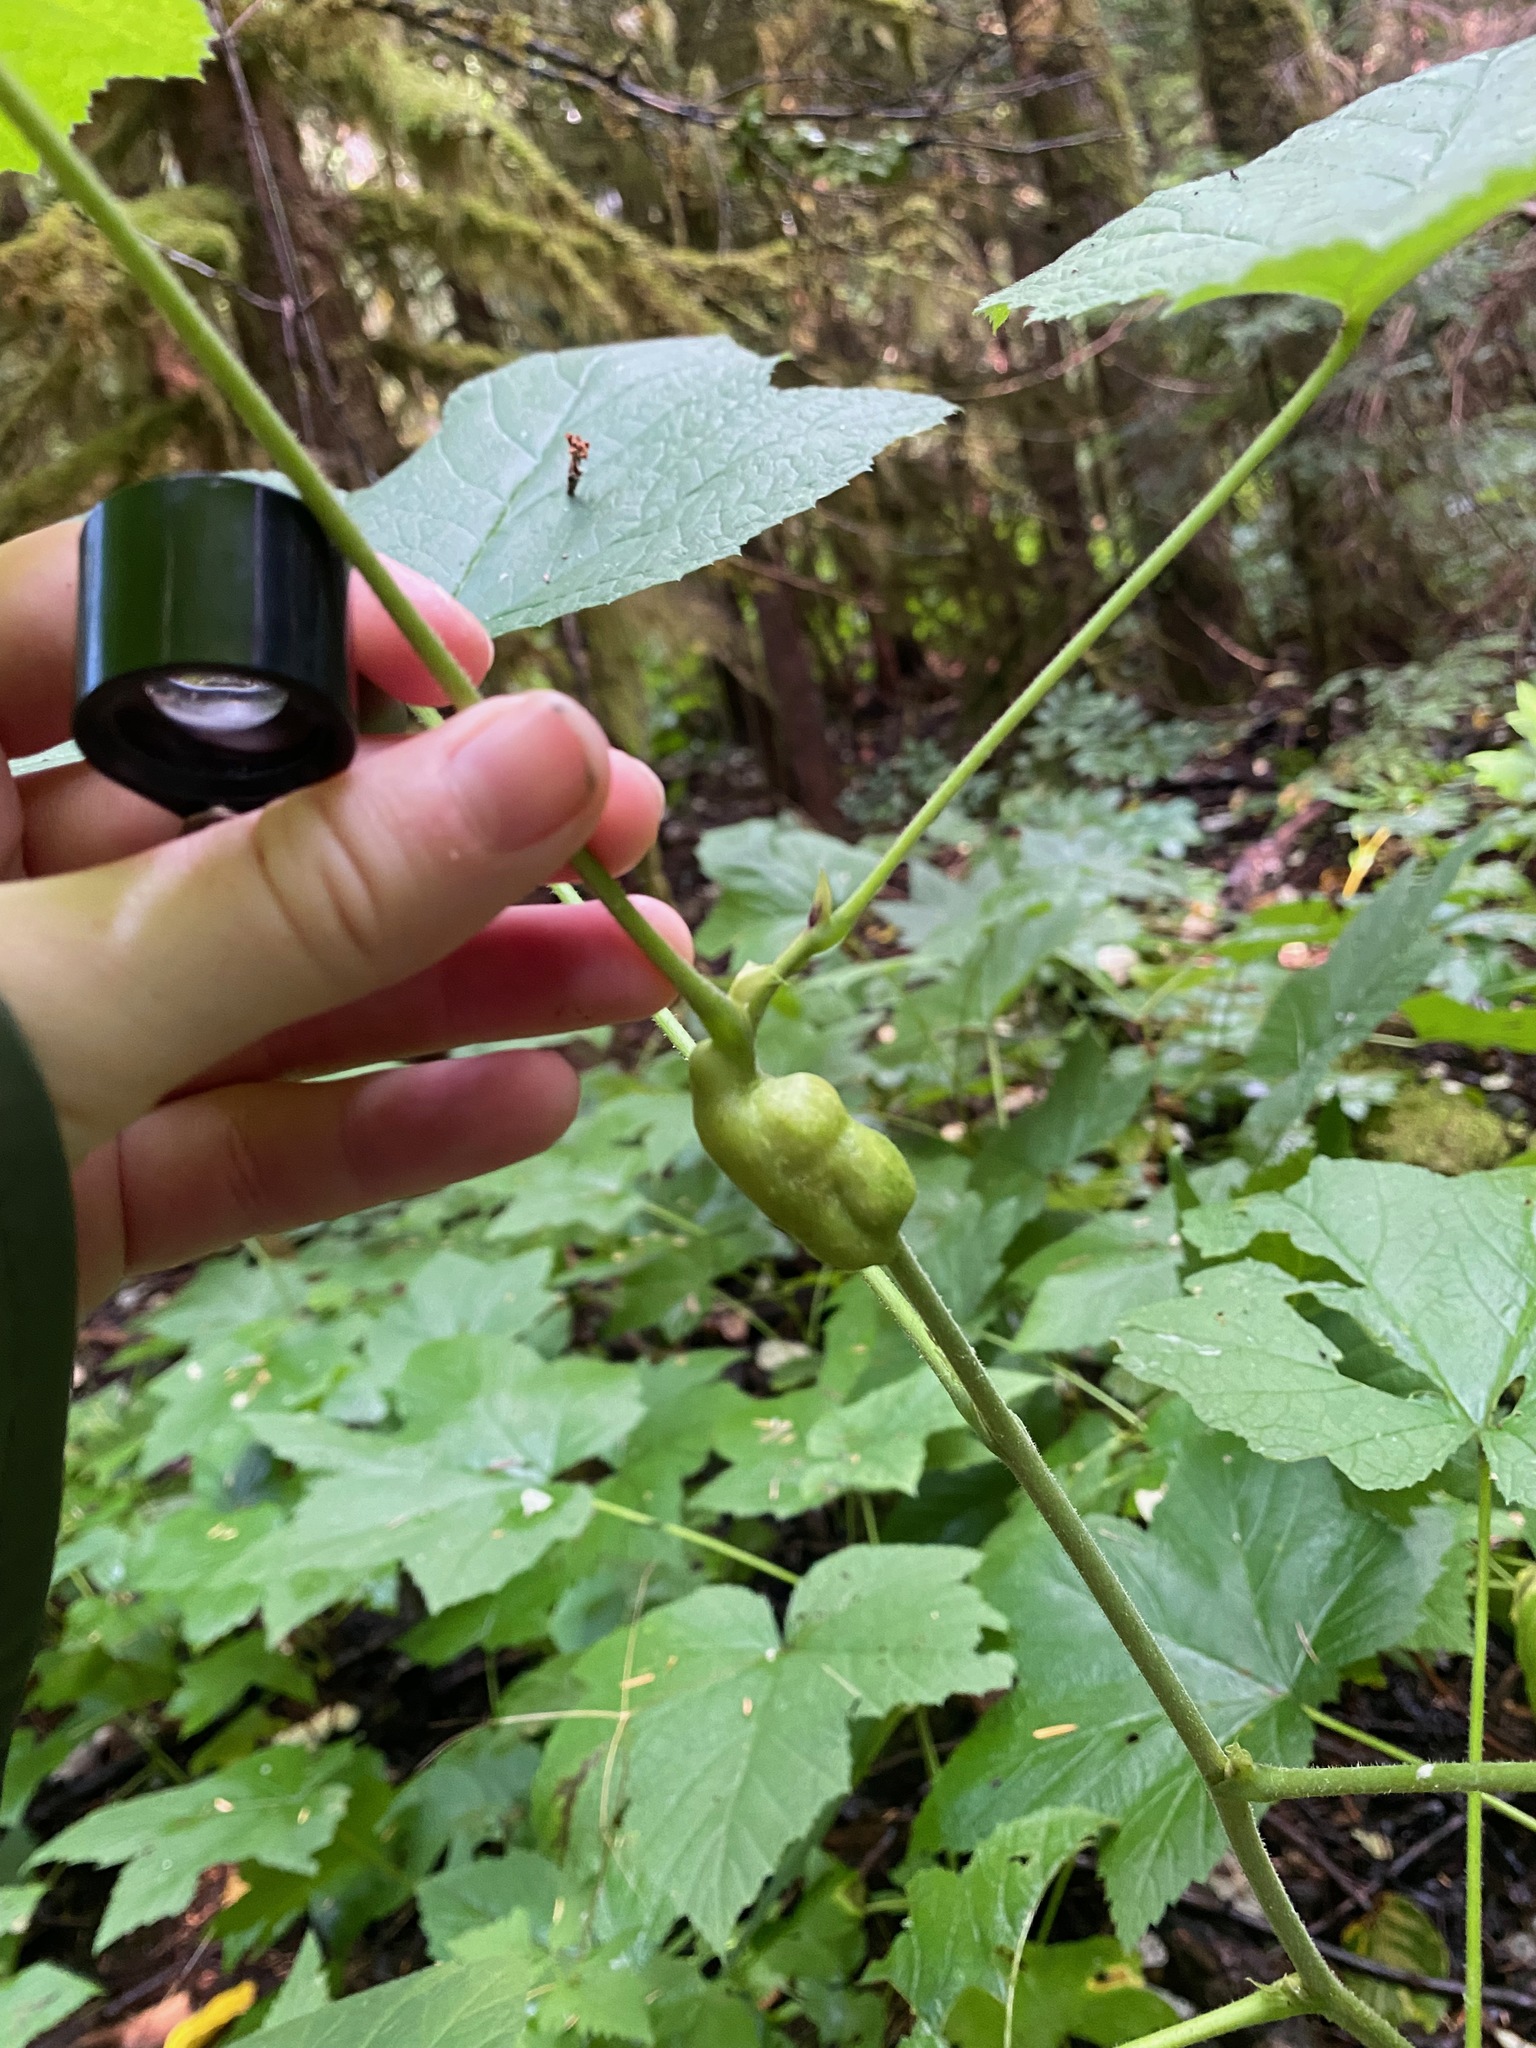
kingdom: Animalia
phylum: Arthropoda
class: Insecta
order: Hymenoptera
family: Cynipidae
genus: Diastrophus
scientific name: Diastrophus
